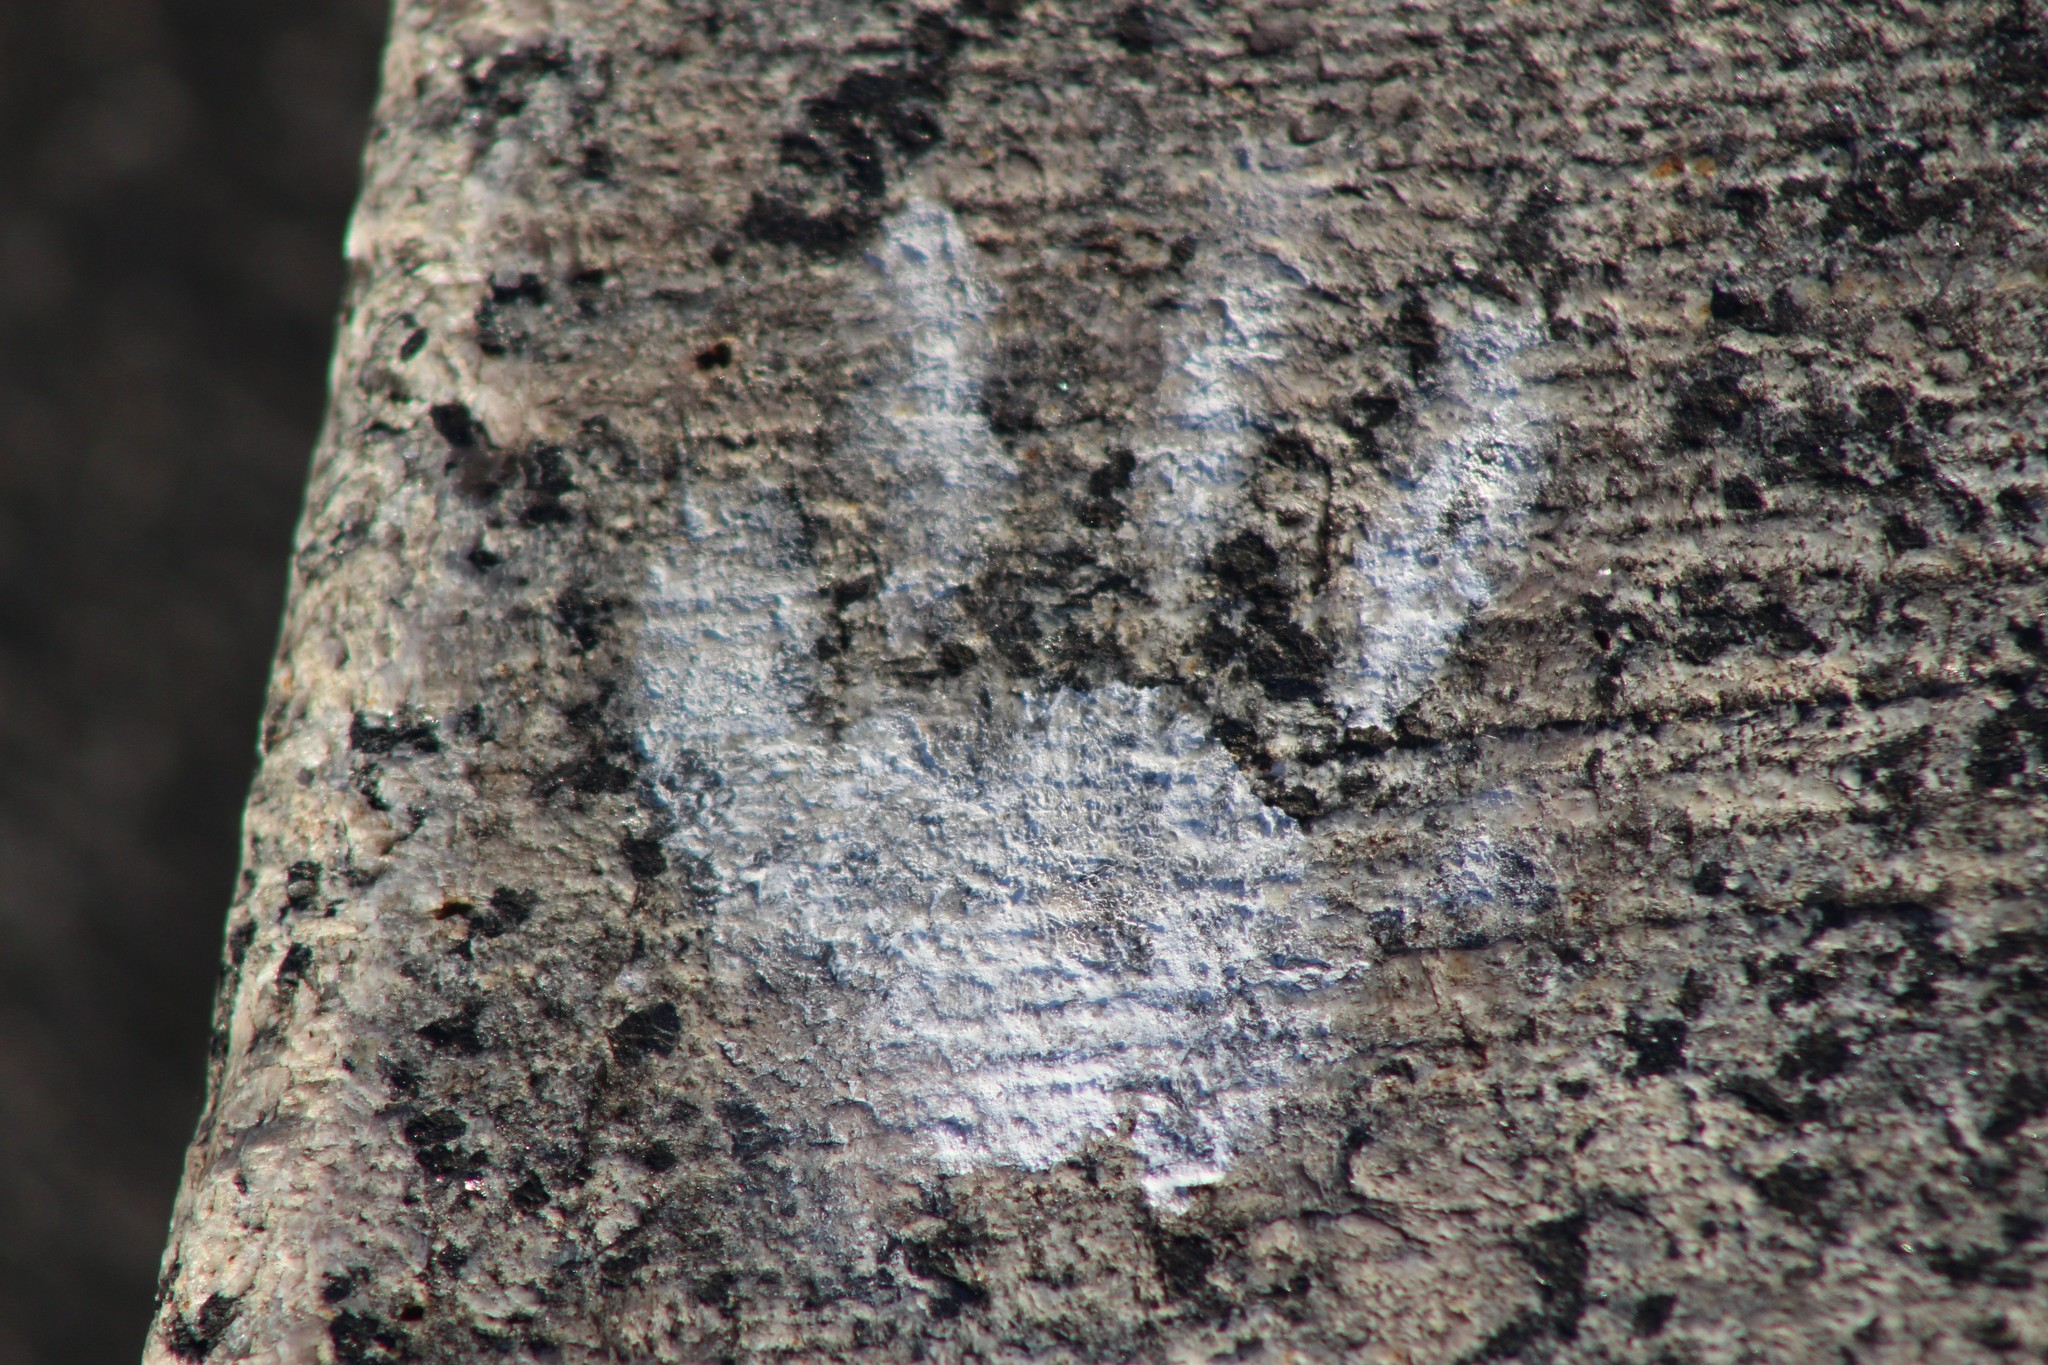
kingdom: Animalia
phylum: Chordata
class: Mammalia
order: Carnivora
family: Procyonidae
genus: Procyon
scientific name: Procyon lotor
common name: Raccoon
